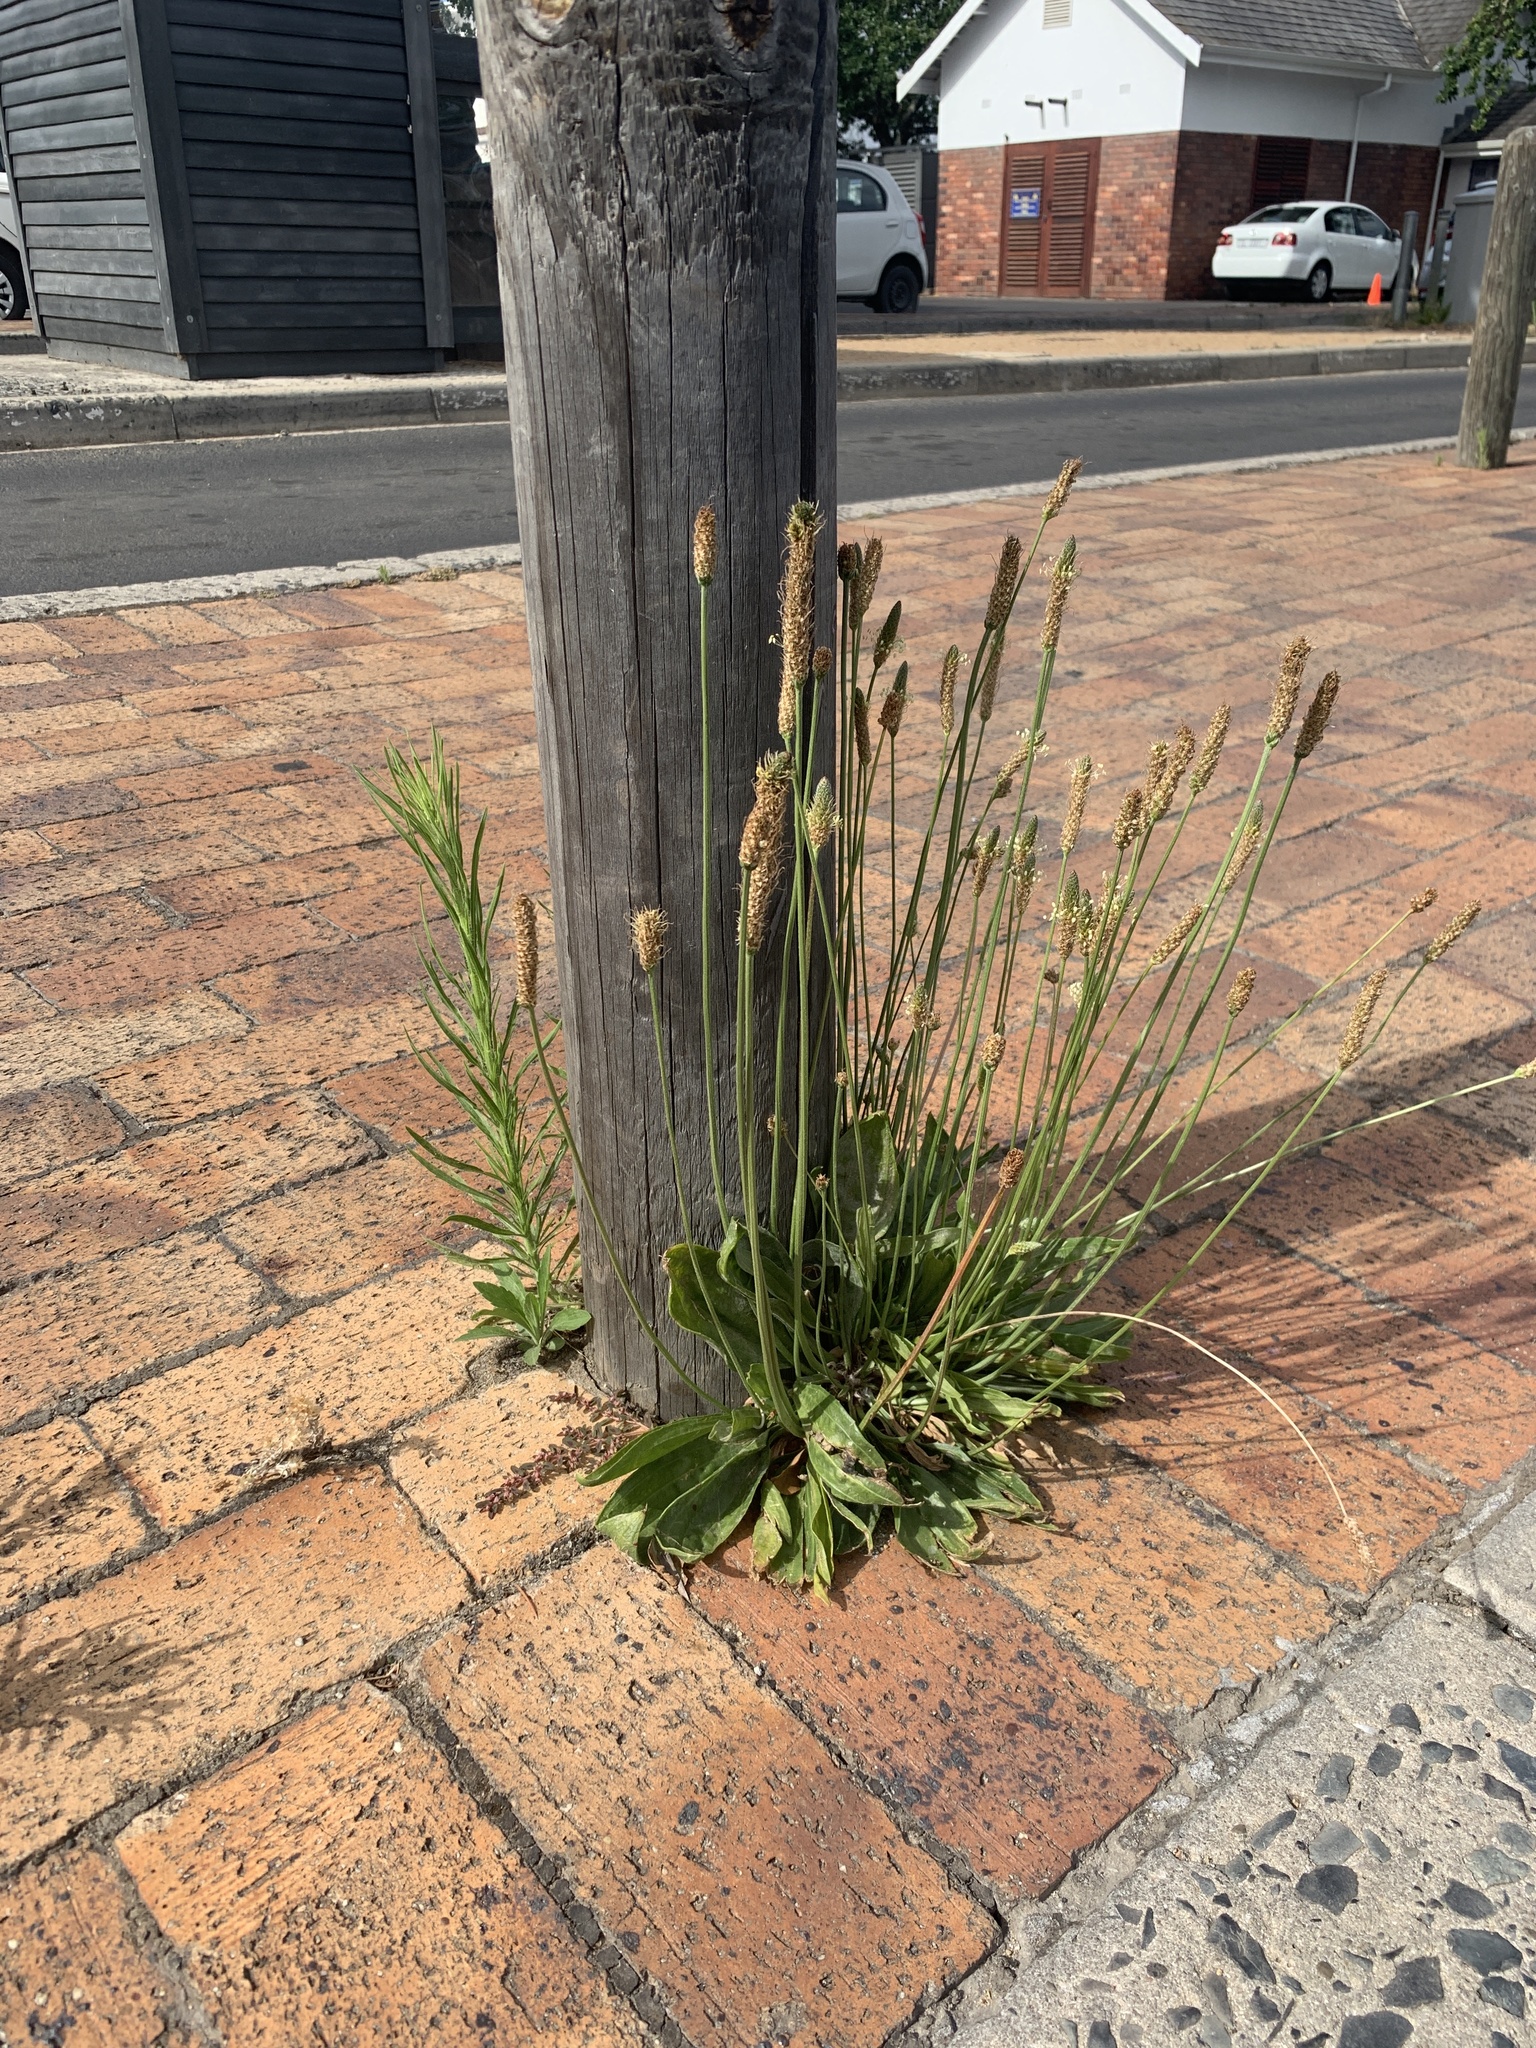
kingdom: Plantae
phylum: Tracheophyta
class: Magnoliopsida
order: Lamiales
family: Plantaginaceae
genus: Plantago
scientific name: Plantago lanceolata
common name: Ribwort plantain
